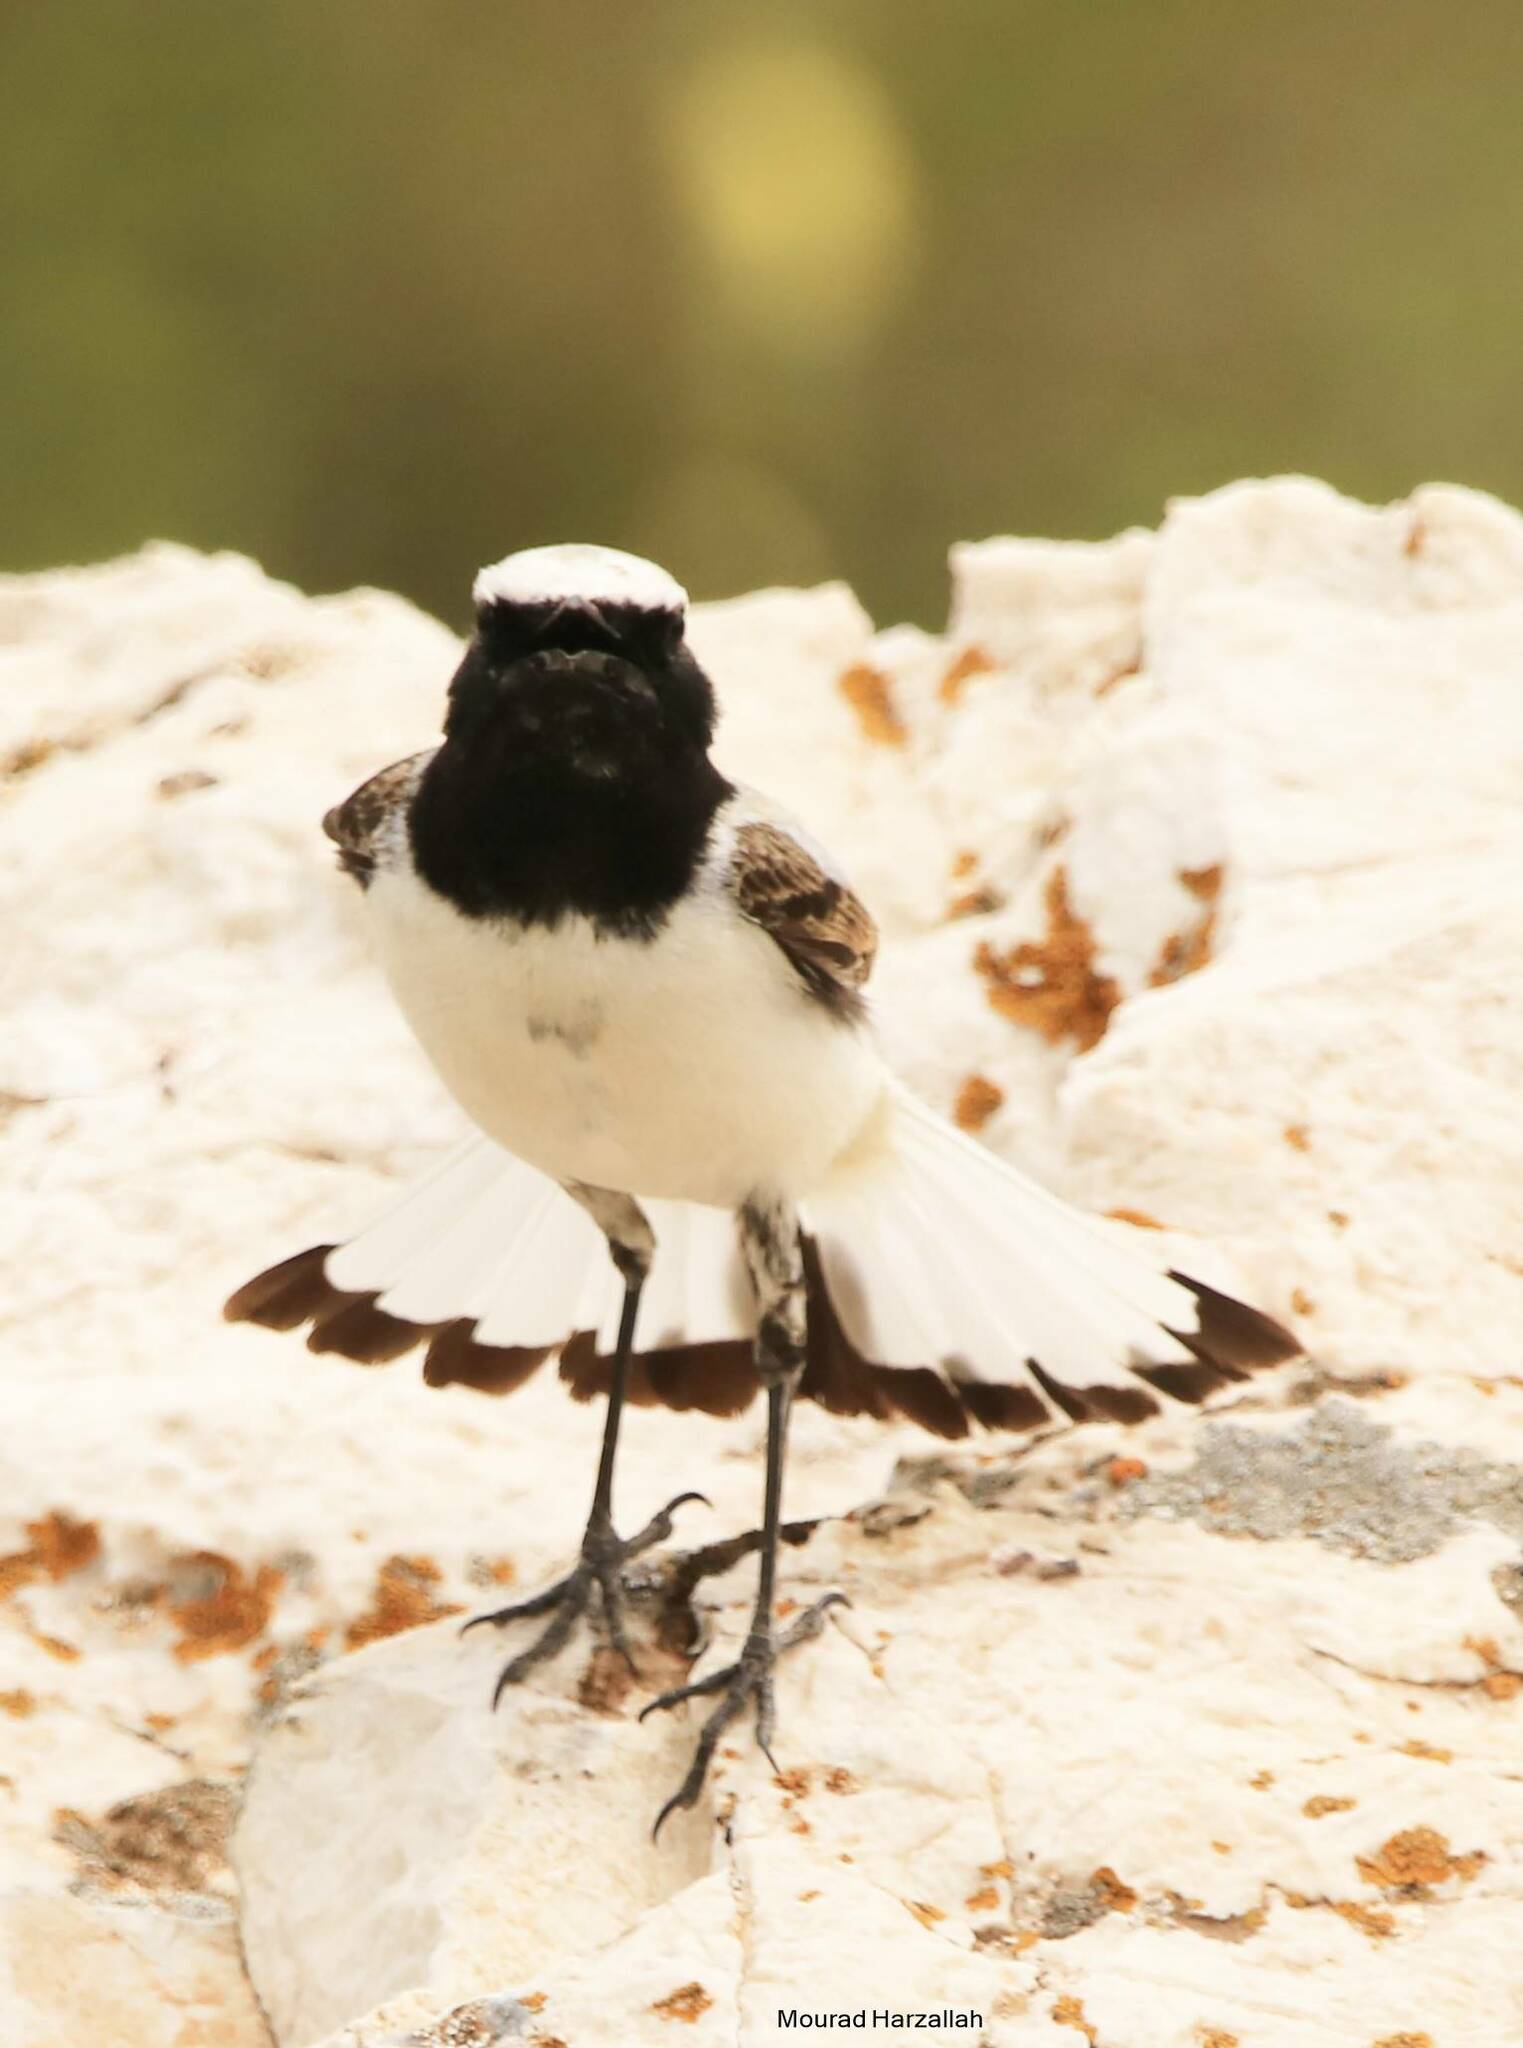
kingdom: Animalia
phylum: Chordata
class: Aves
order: Passeriformes
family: Muscicapidae
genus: Oenanthe
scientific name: Oenanthe oenanthe
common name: Northern wheatear
